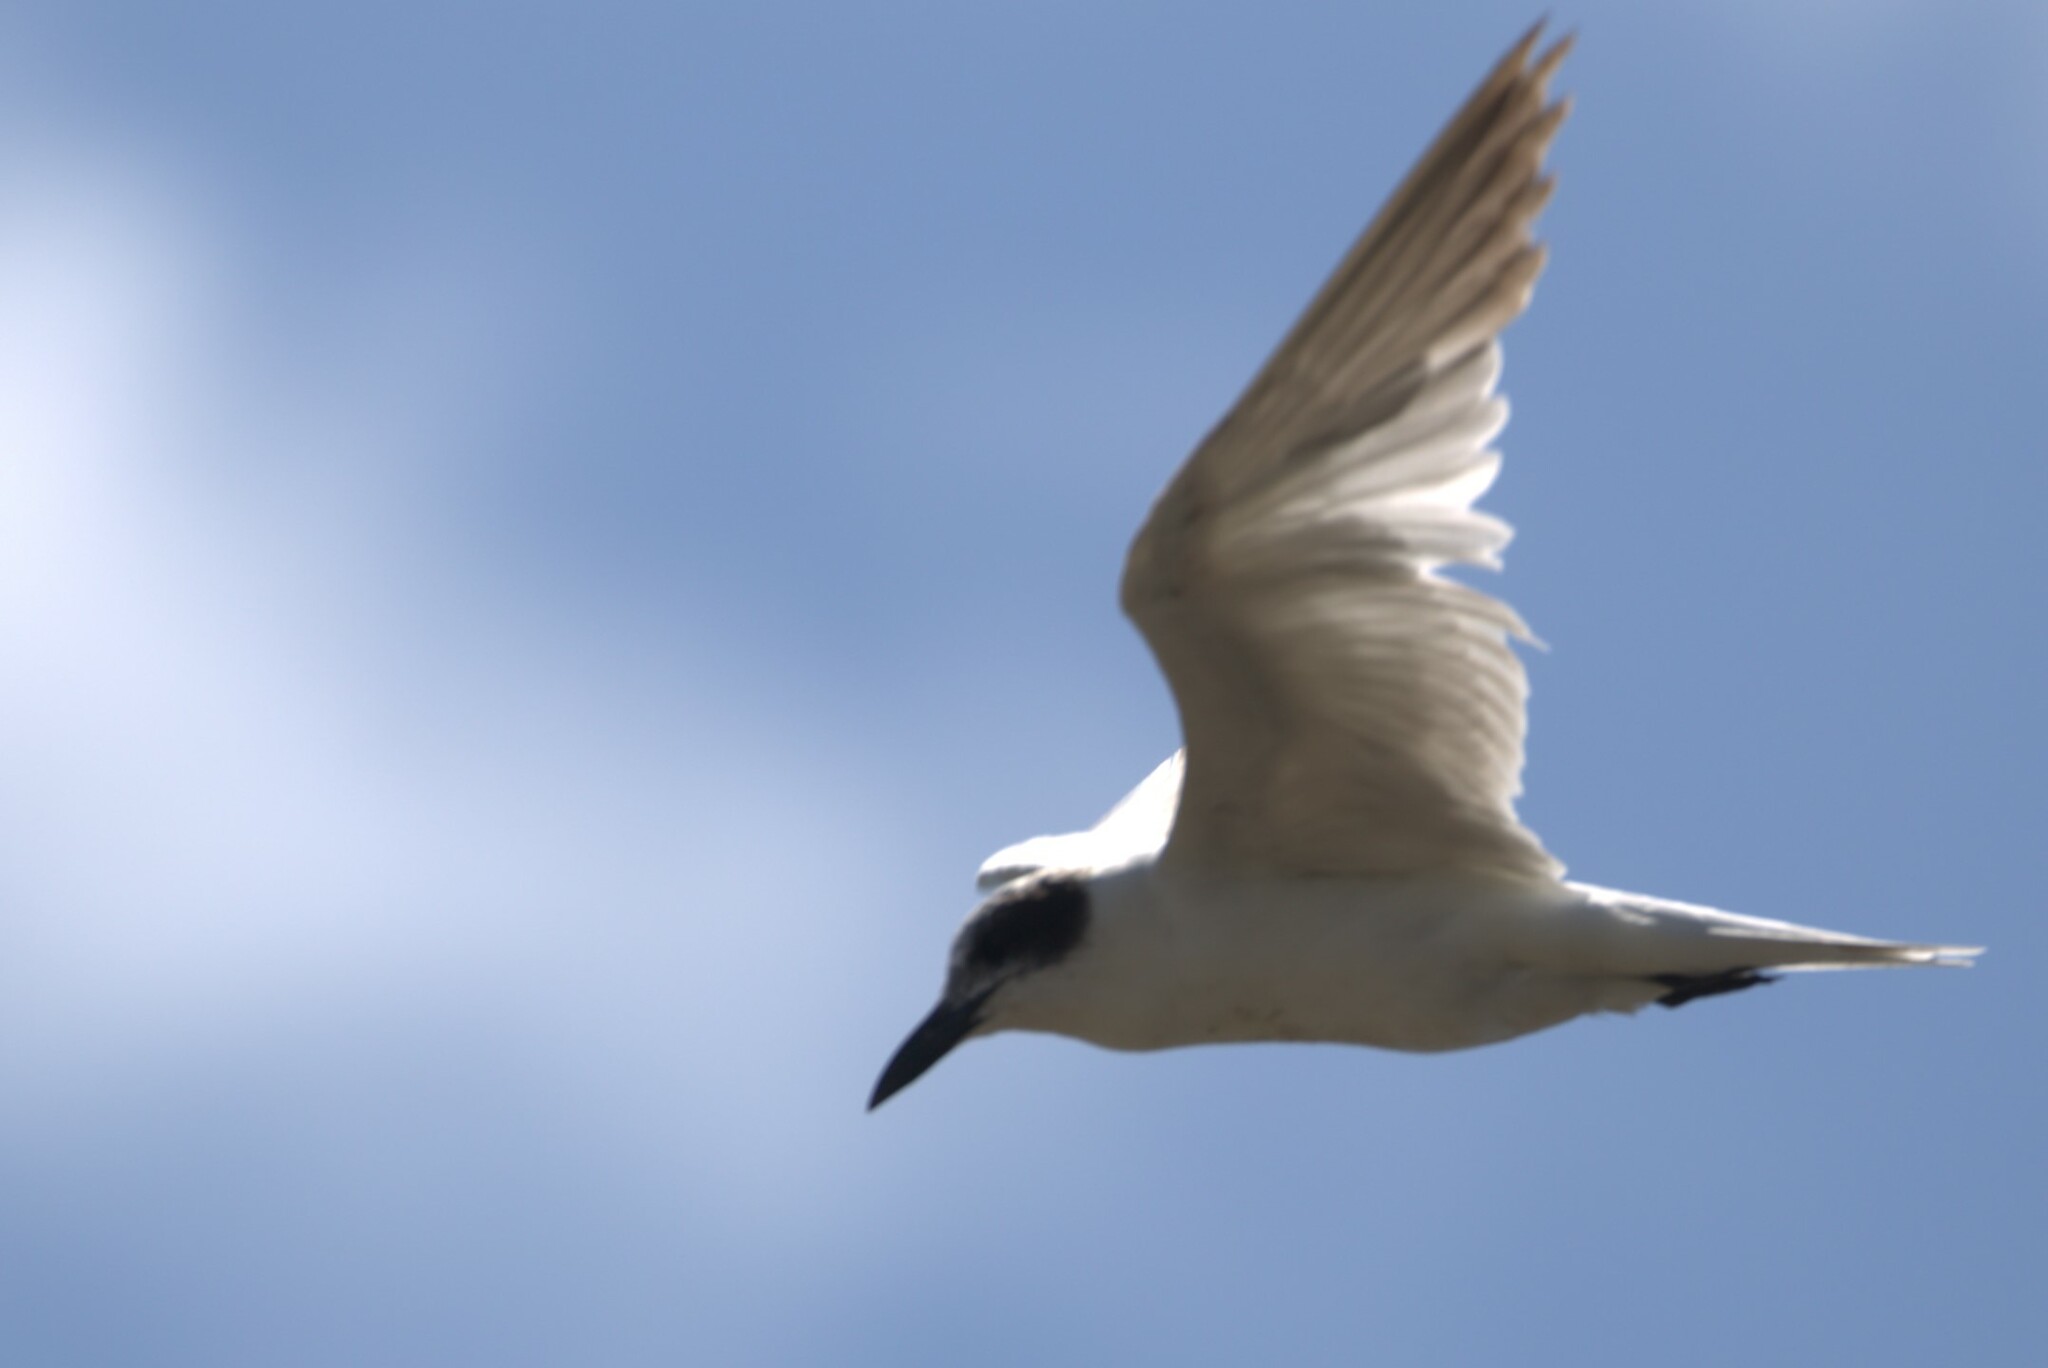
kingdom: Animalia
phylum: Chordata
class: Aves
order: Charadriiformes
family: Laridae
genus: Gelochelidon
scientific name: Gelochelidon macrotarsa
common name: Australian tern
